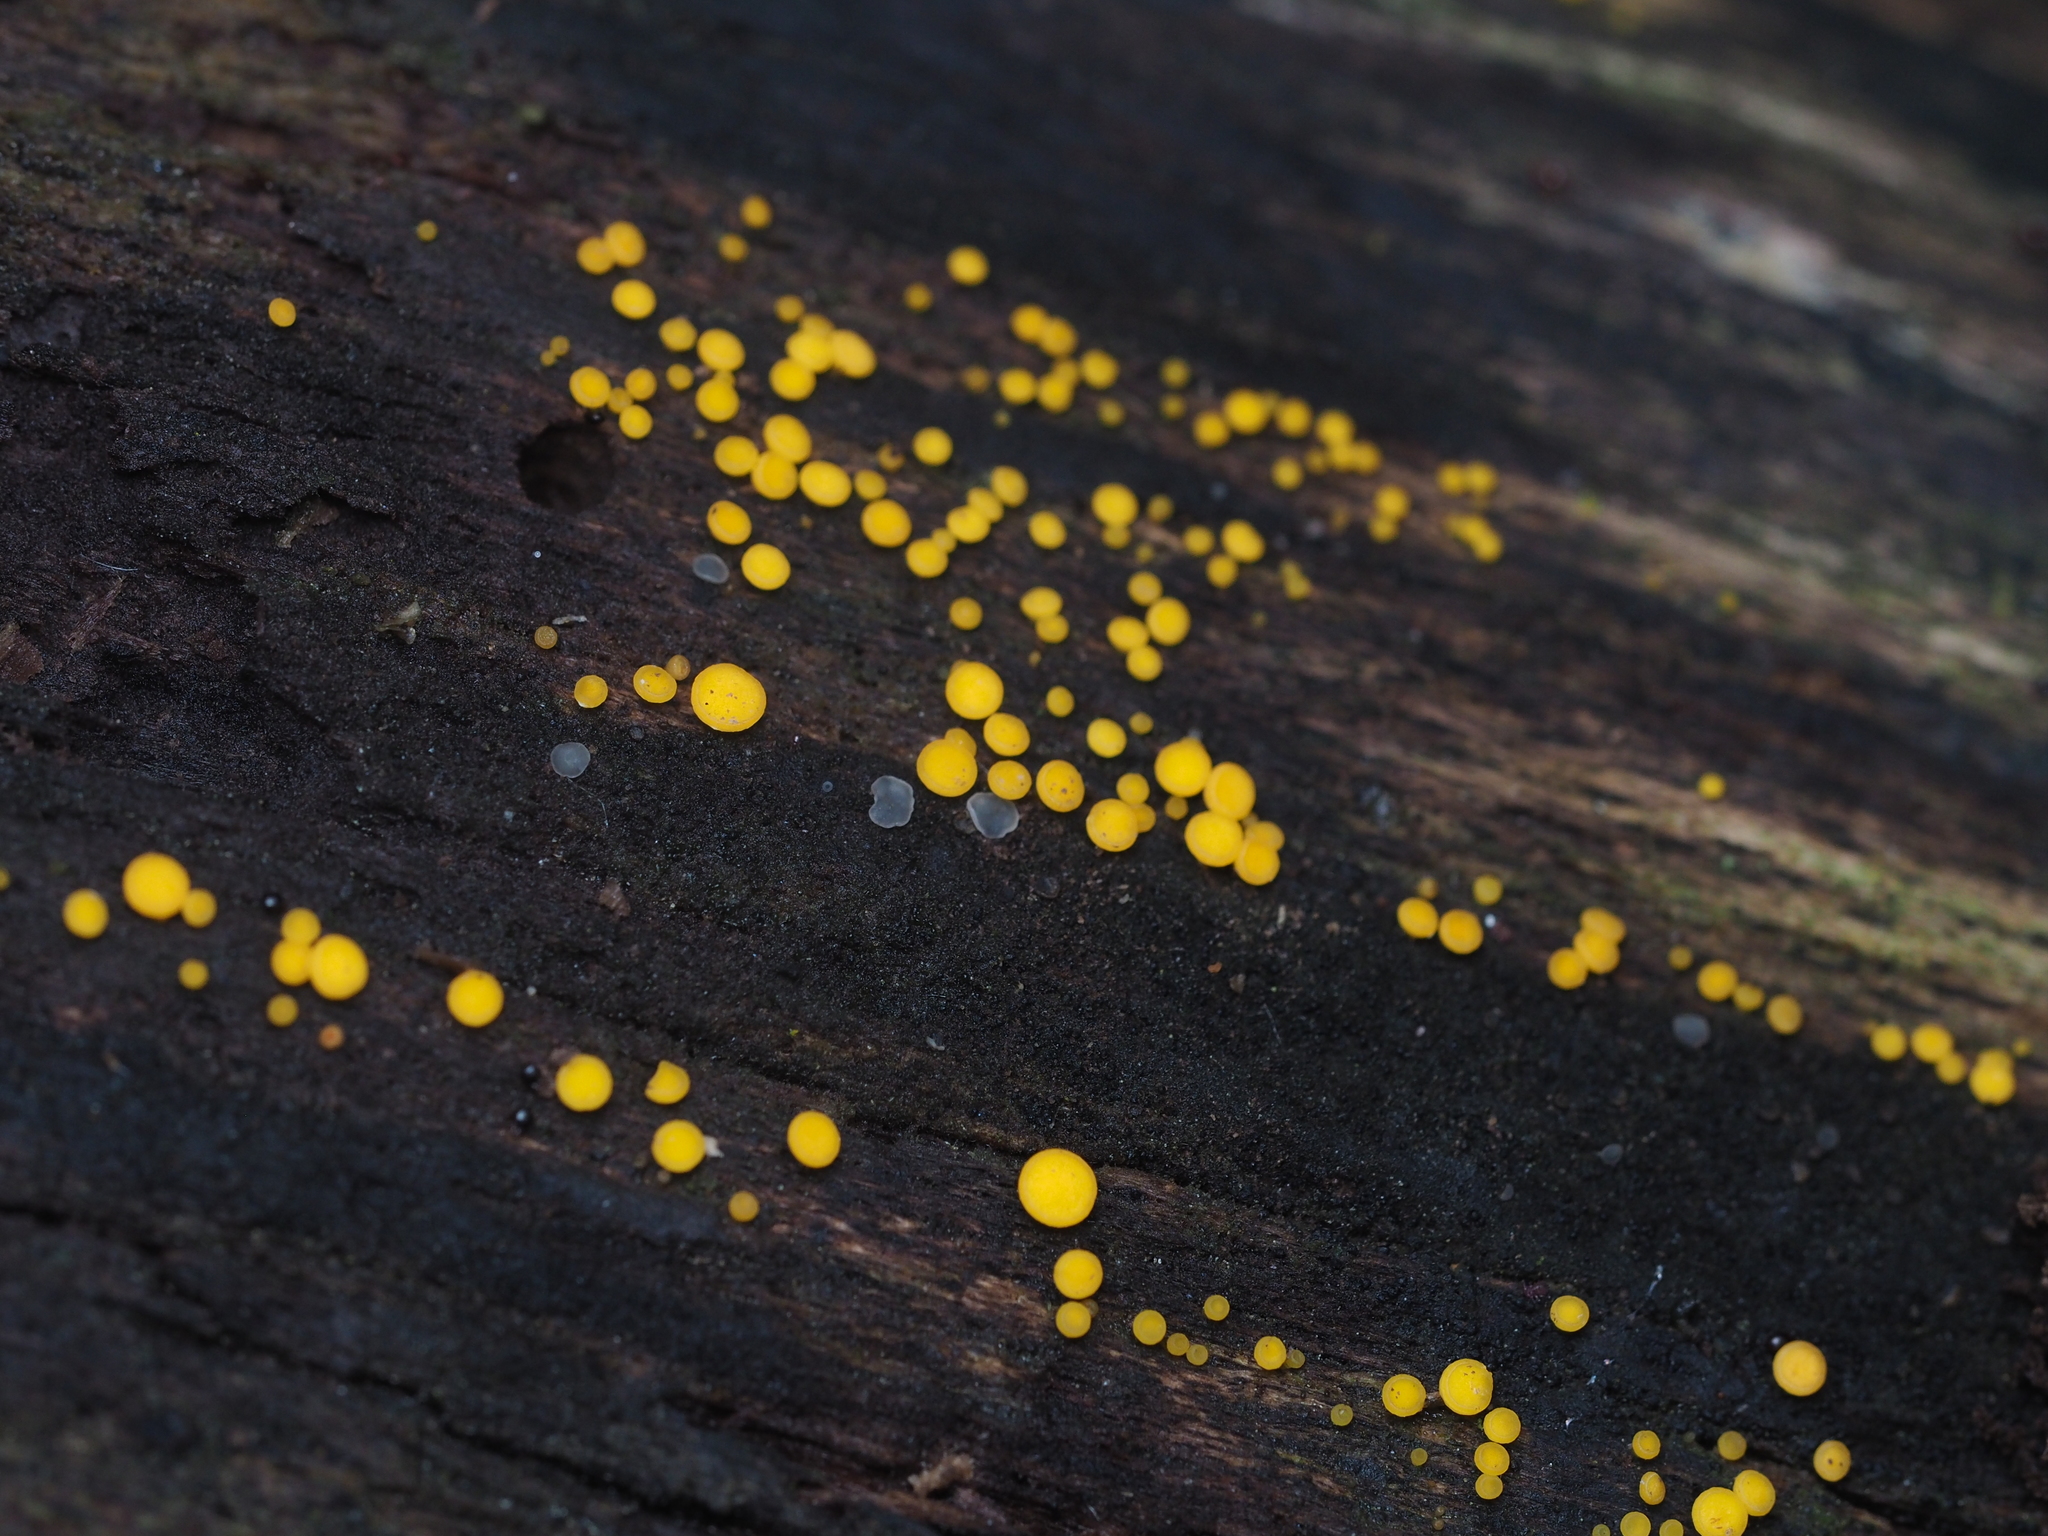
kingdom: Fungi
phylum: Ascomycota
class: Leotiomycetes
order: Helotiales
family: Pezizellaceae
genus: Calycina
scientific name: Calycina citrina
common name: Yellow fairy cups
